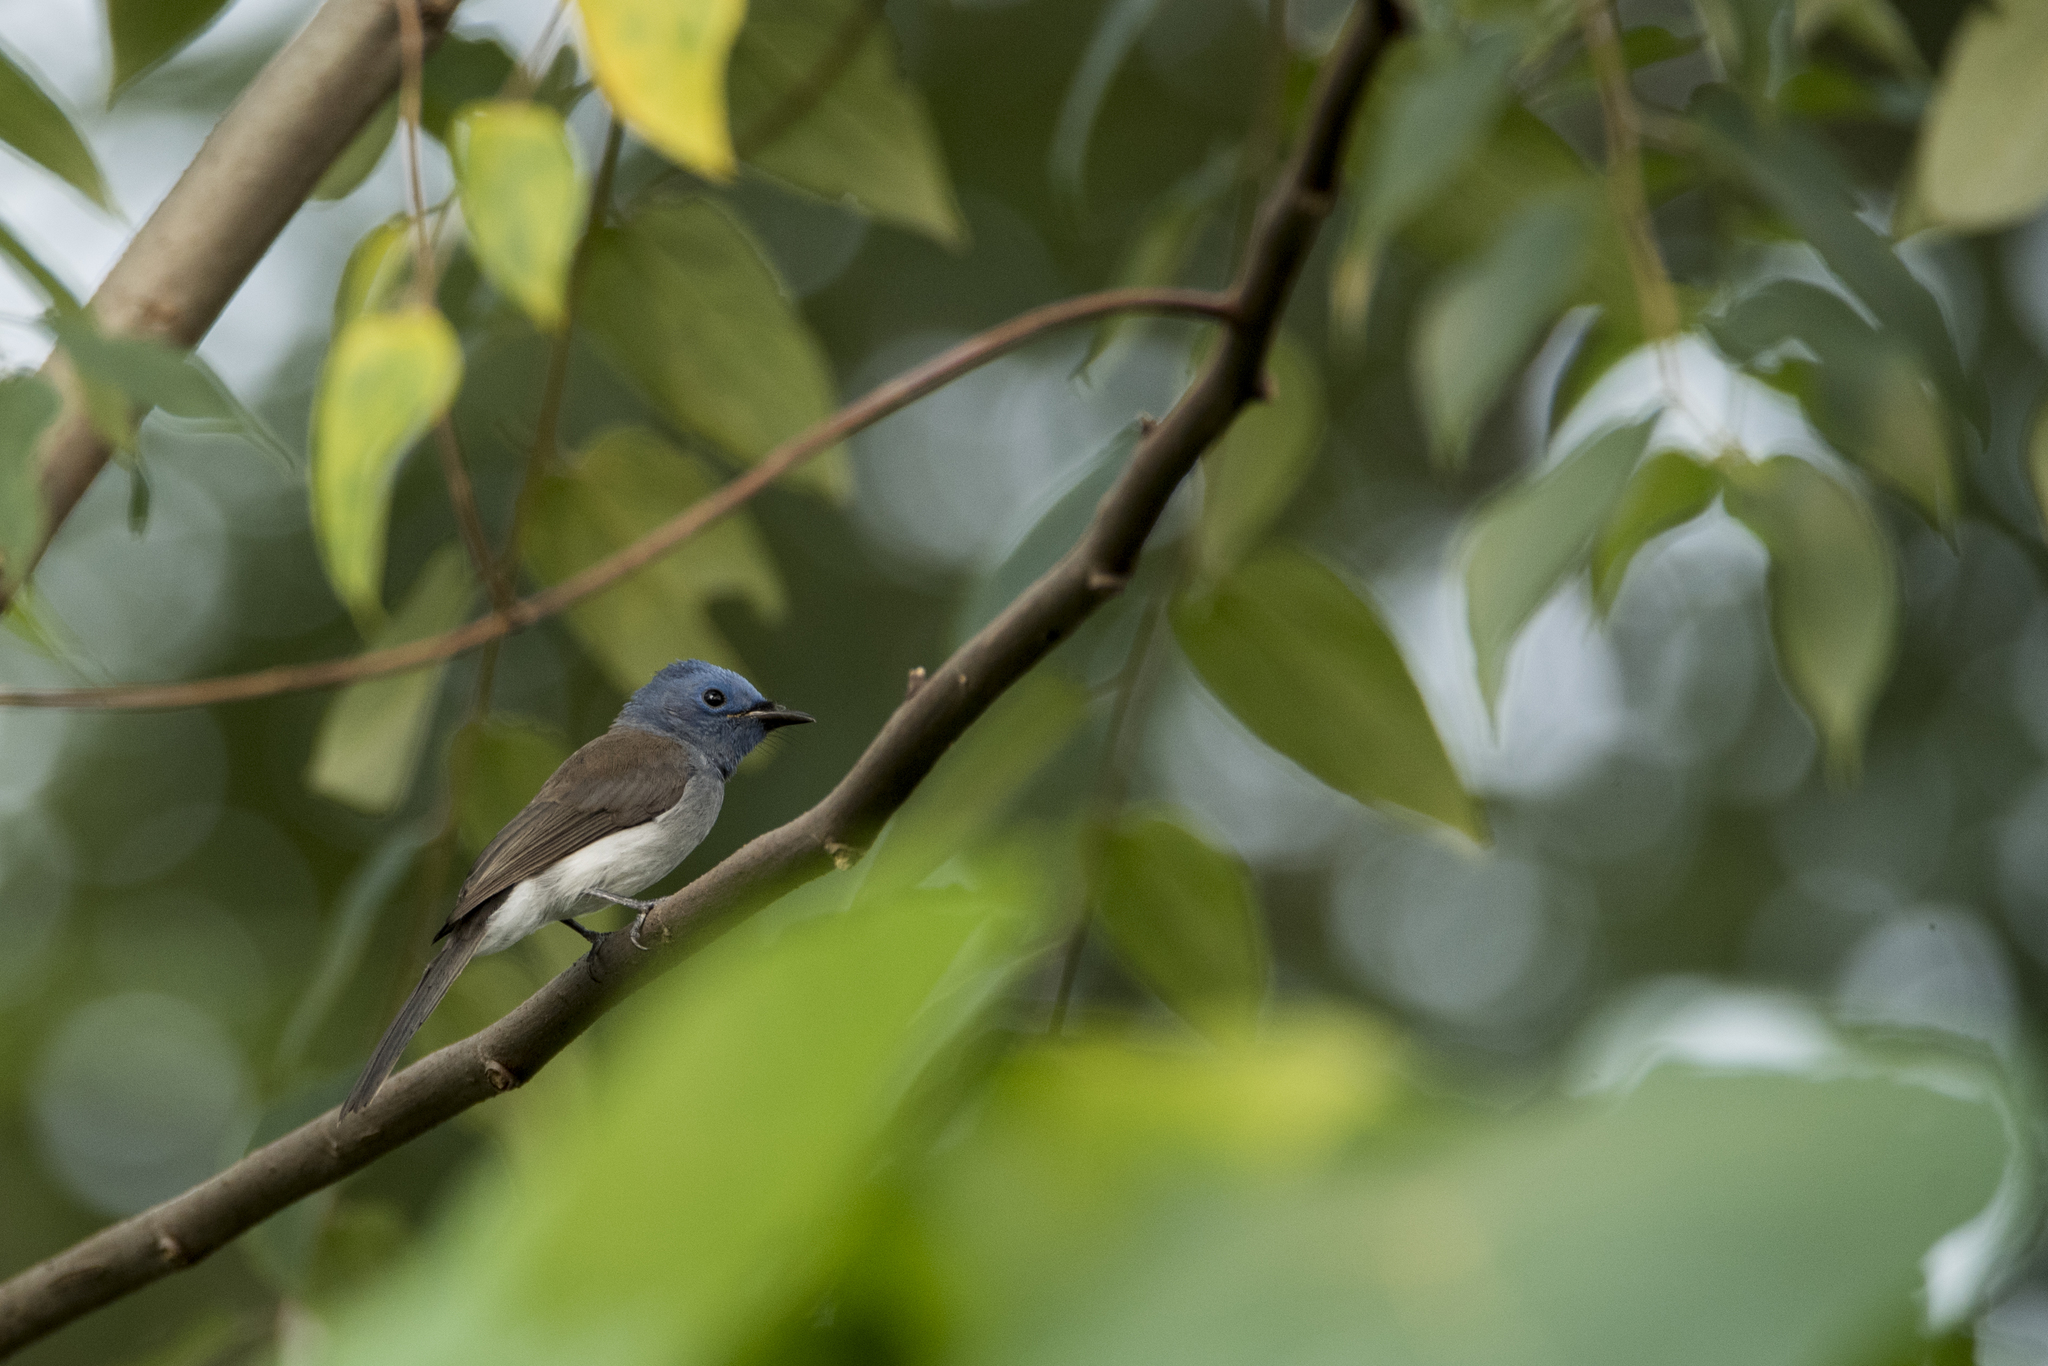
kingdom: Animalia
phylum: Chordata
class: Aves
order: Passeriformes
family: Monarchidae
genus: Hypothymis
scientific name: Hypothymis azurea
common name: Black-naped monarch
